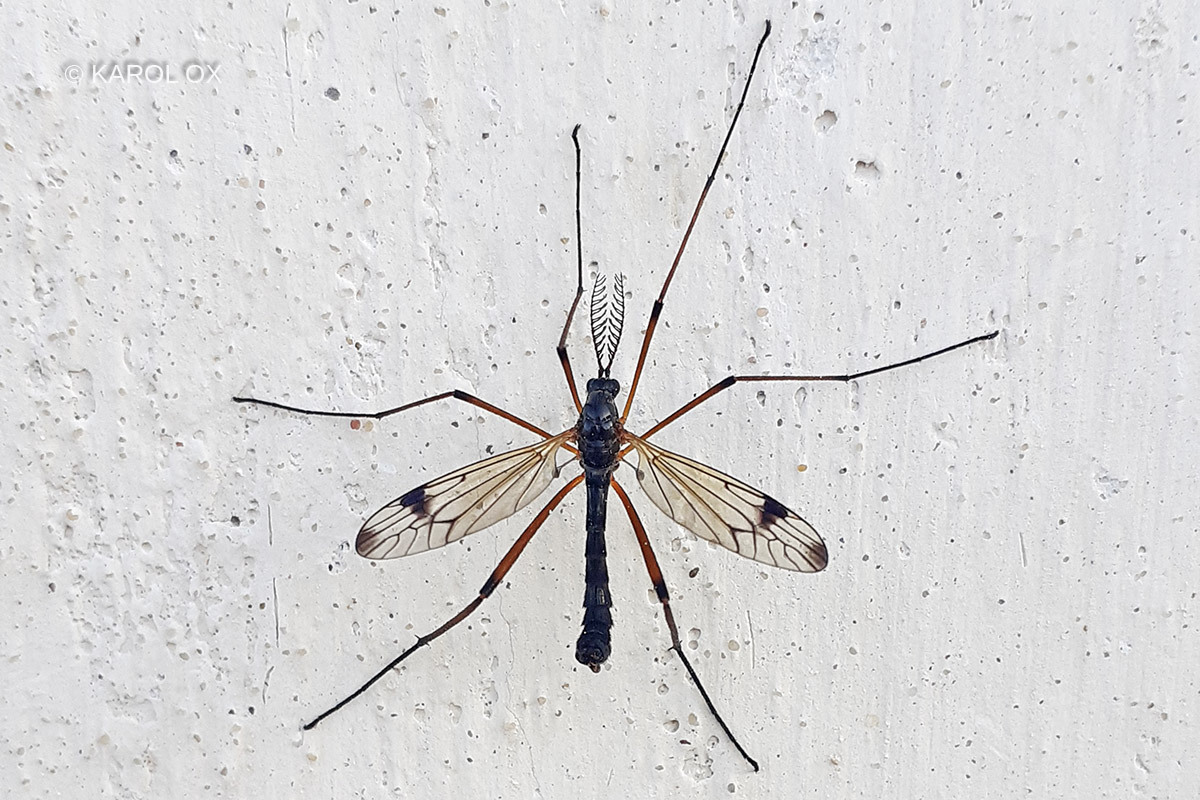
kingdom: Animalia
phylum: Arthropoda
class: Insecta
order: Diptera
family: Tipulidae
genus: Dictenidia
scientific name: Dictenidia bimaculata
